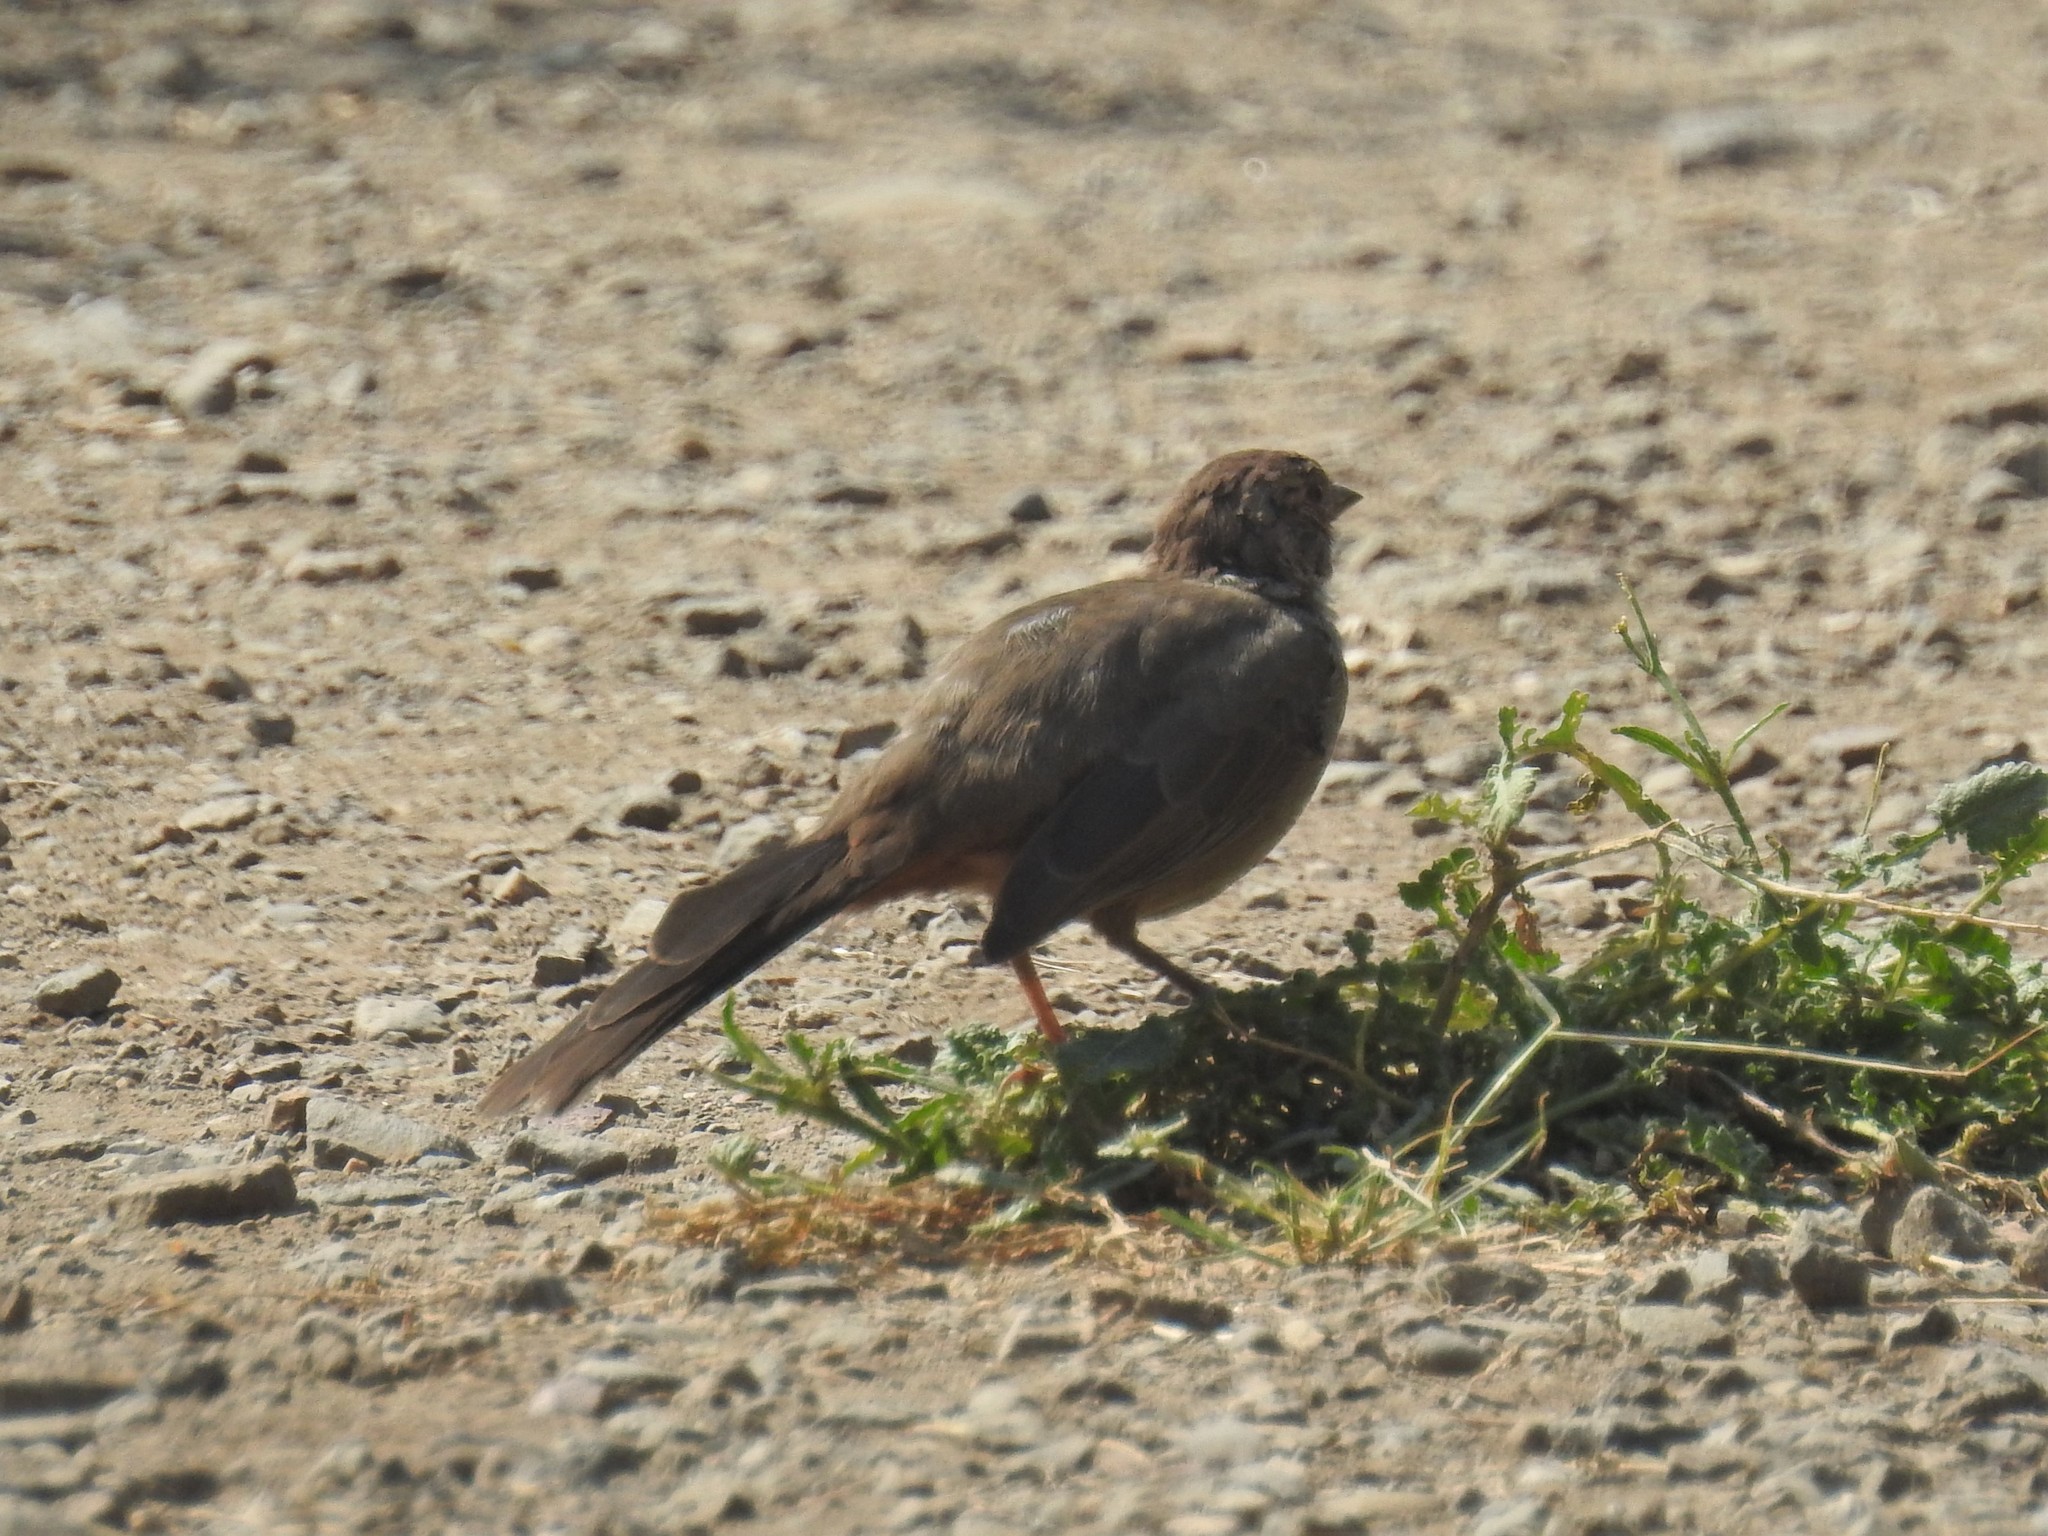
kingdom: Animalia
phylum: Chordata
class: Aves
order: Passeriformes
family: Passerellidae
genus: Melozone
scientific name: Melozone crissalis
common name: California towhee
